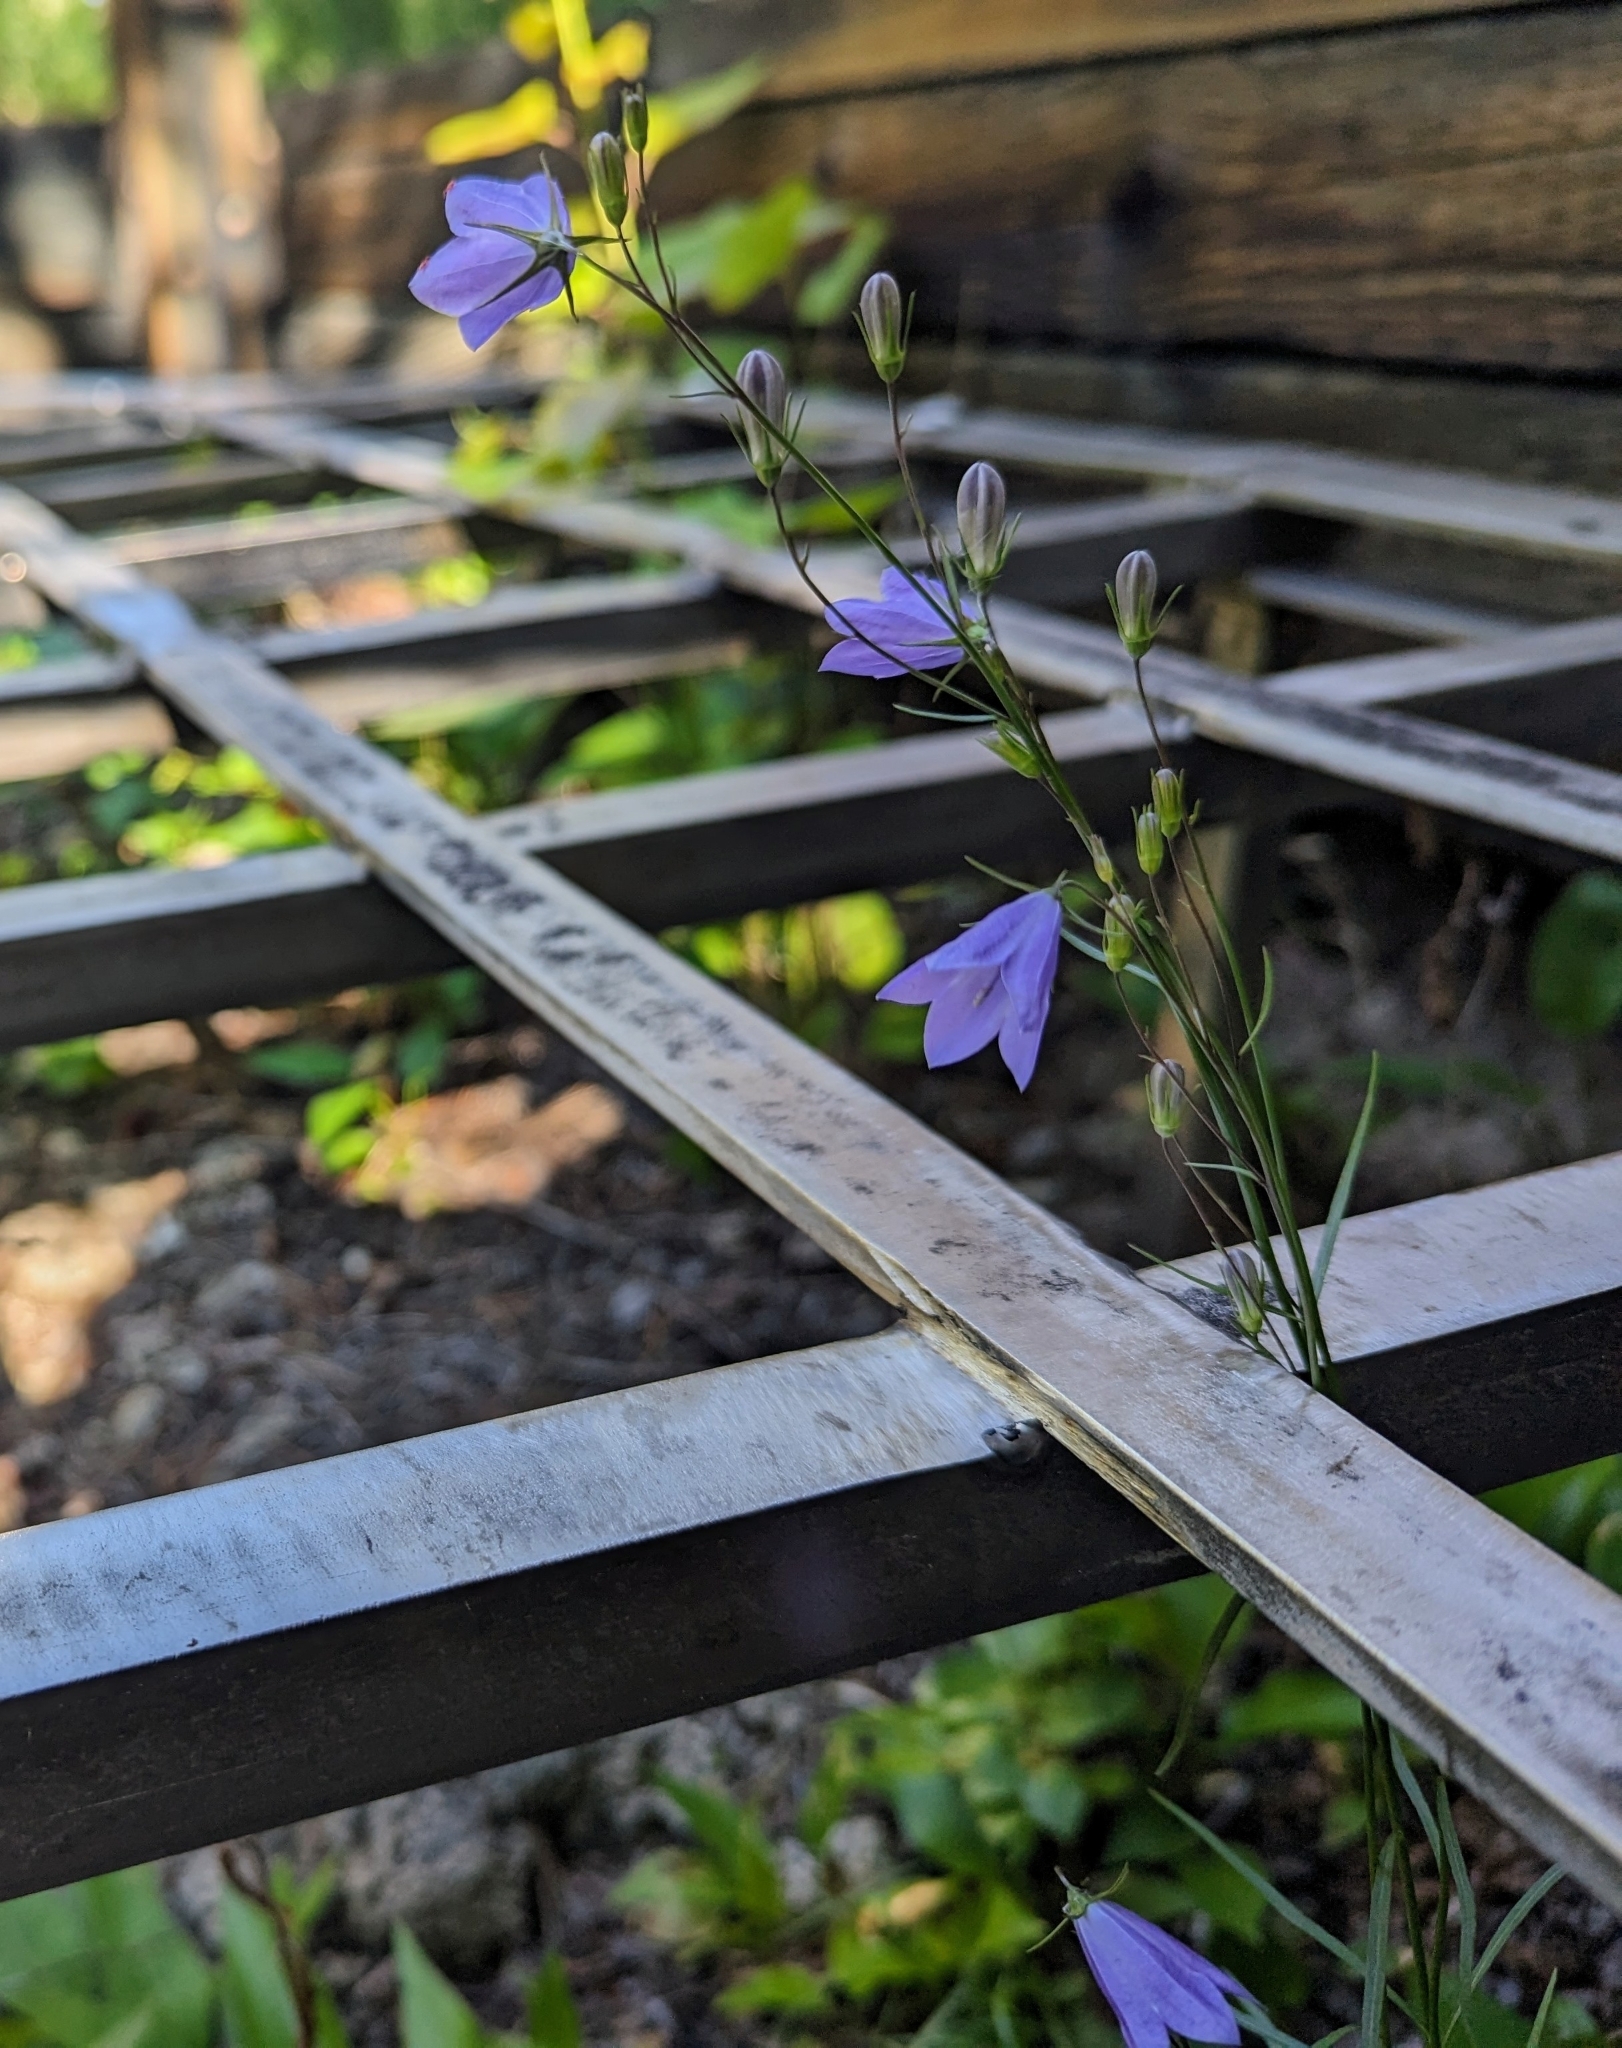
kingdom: Plantae
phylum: Tracheophyta
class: Magnoliopsida
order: Asterales
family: Campanulaceae
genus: Campanula
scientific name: Campanula alaskana
